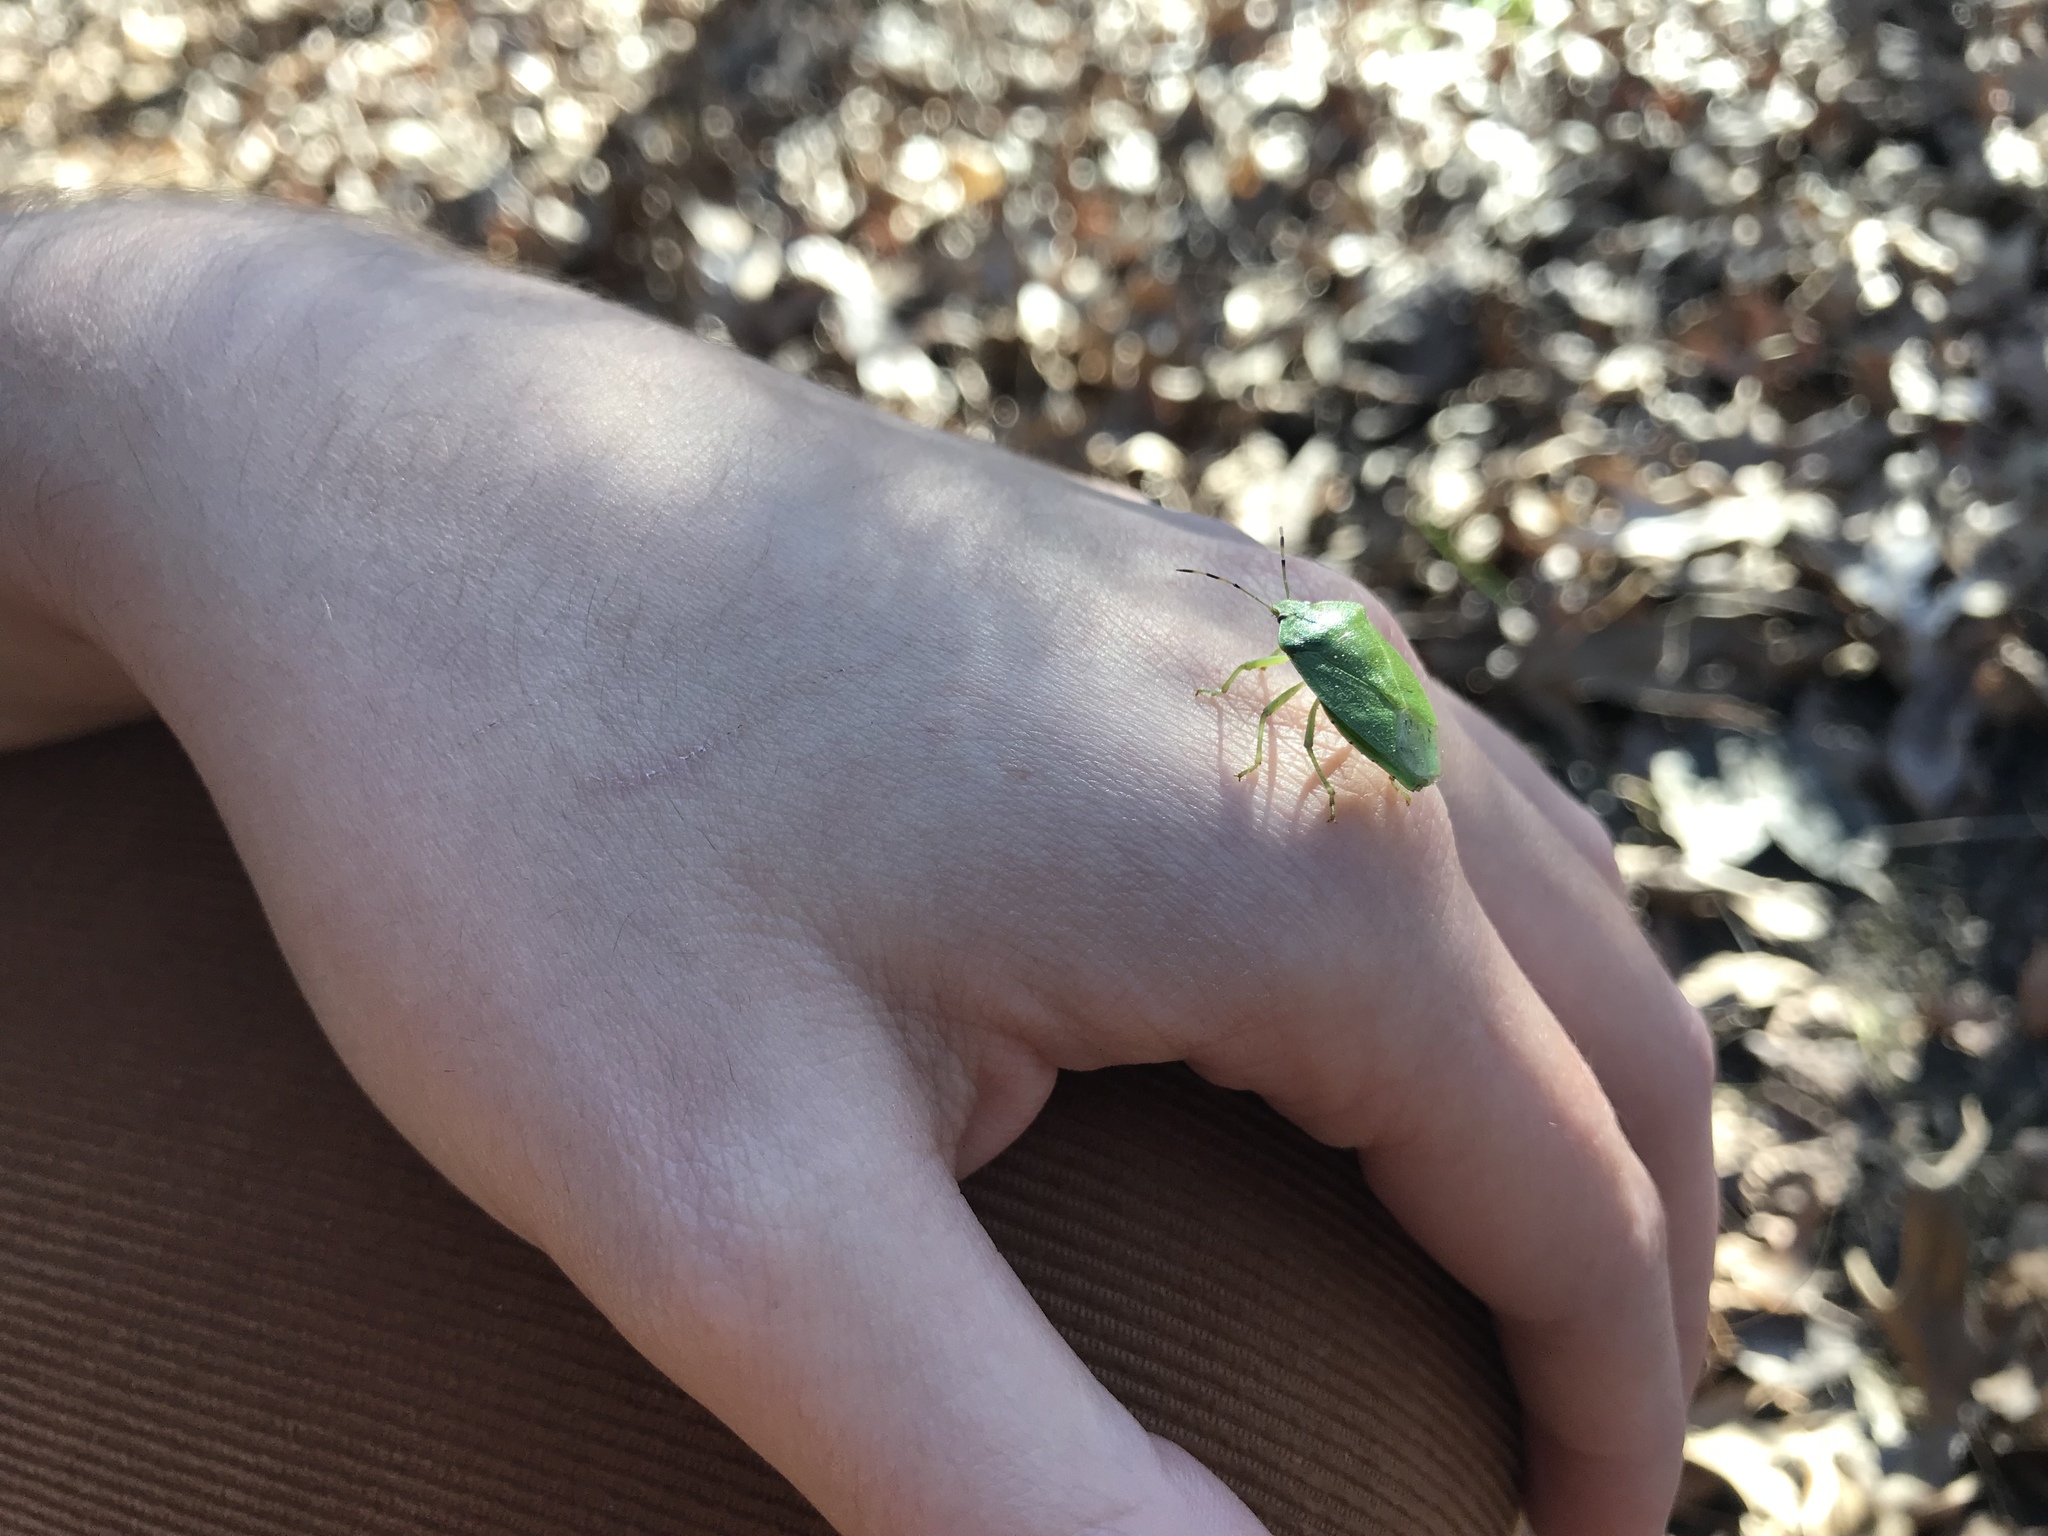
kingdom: Animalia
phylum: Arthropoda
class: Insecta
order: Hemiptera
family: Pentatomidae
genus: Chinavia
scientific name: Chinavia hilaris
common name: Green stink bug
